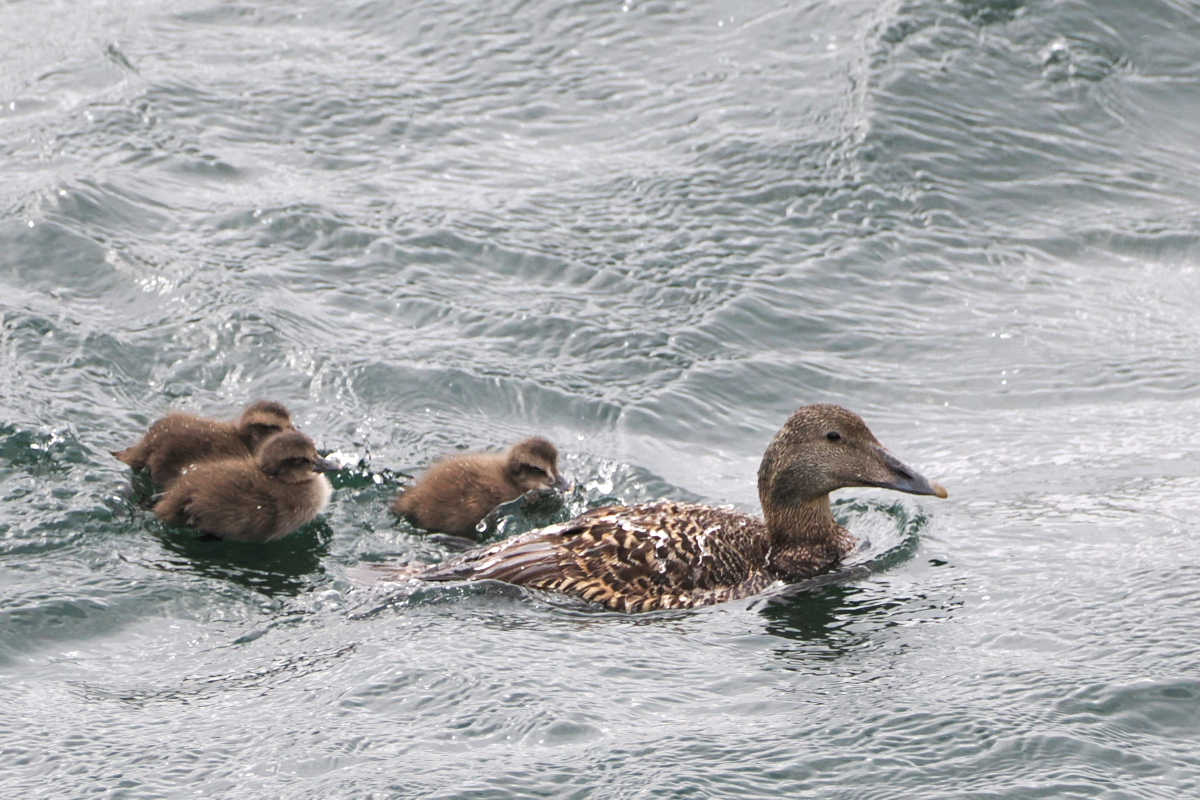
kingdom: Animalia
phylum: Chordata
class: Aves
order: Anseriformes
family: Anatidae
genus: Somateria
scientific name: Somateria mollissima
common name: Common eider
